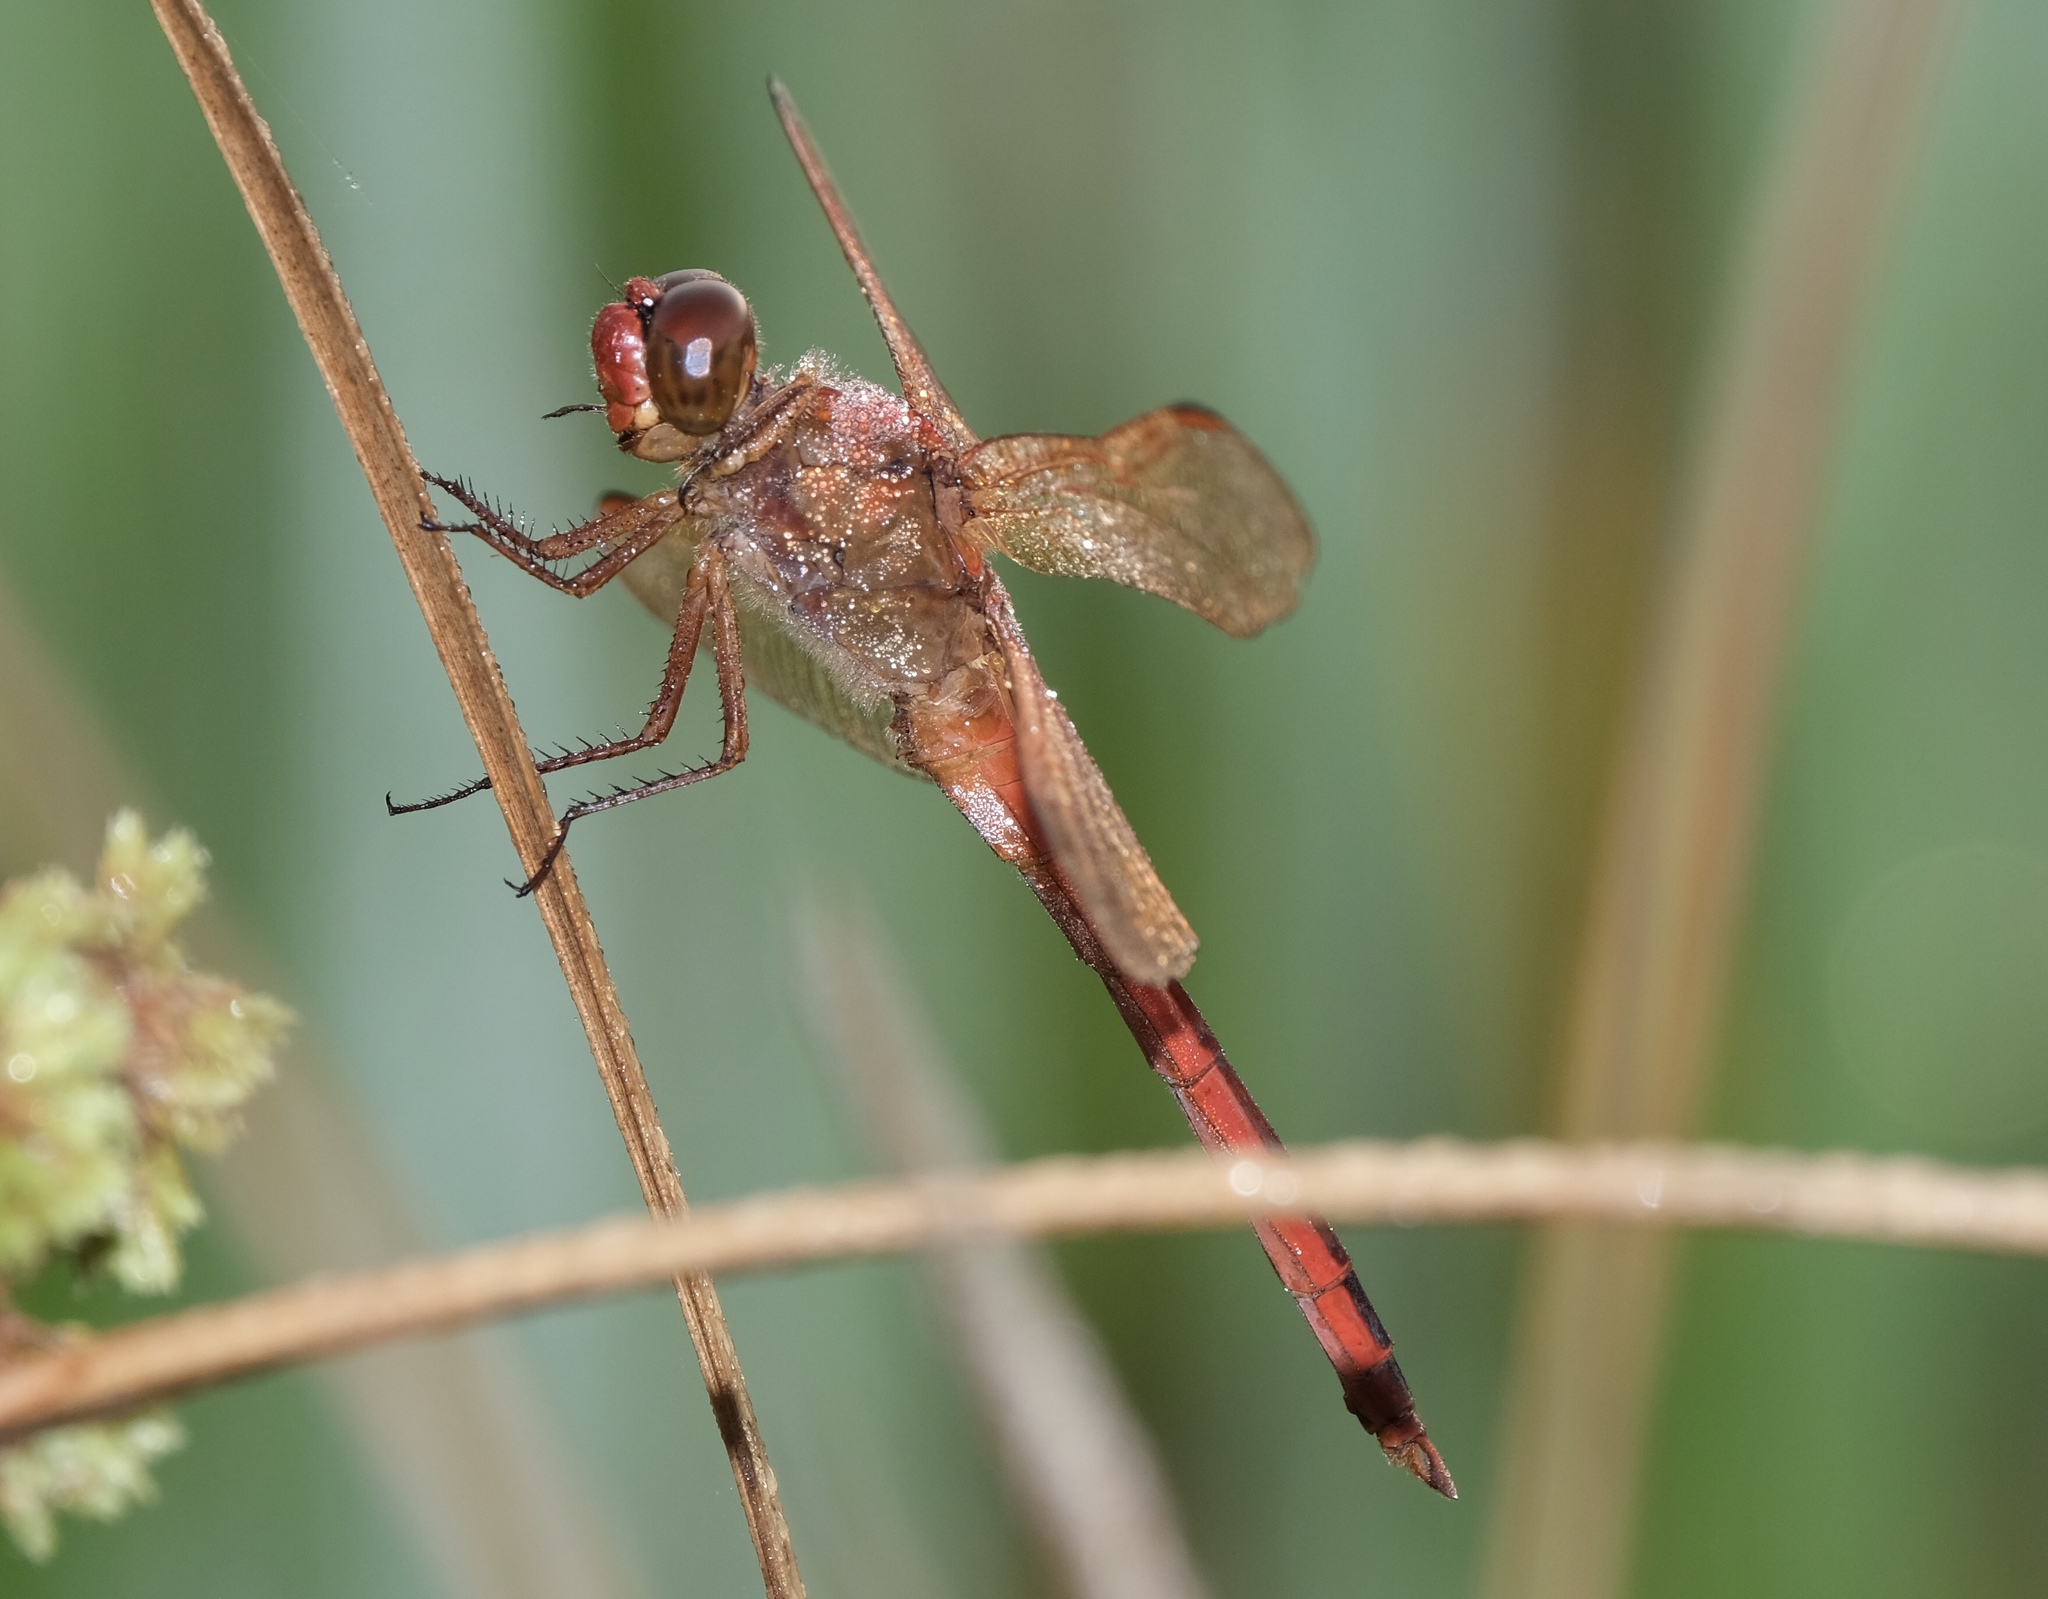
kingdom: Animalia
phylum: Arthropoda
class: Insecta
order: Odonata
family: Libellulidae
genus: Libellula
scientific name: Libellula needhami
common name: Needham's skimmer
